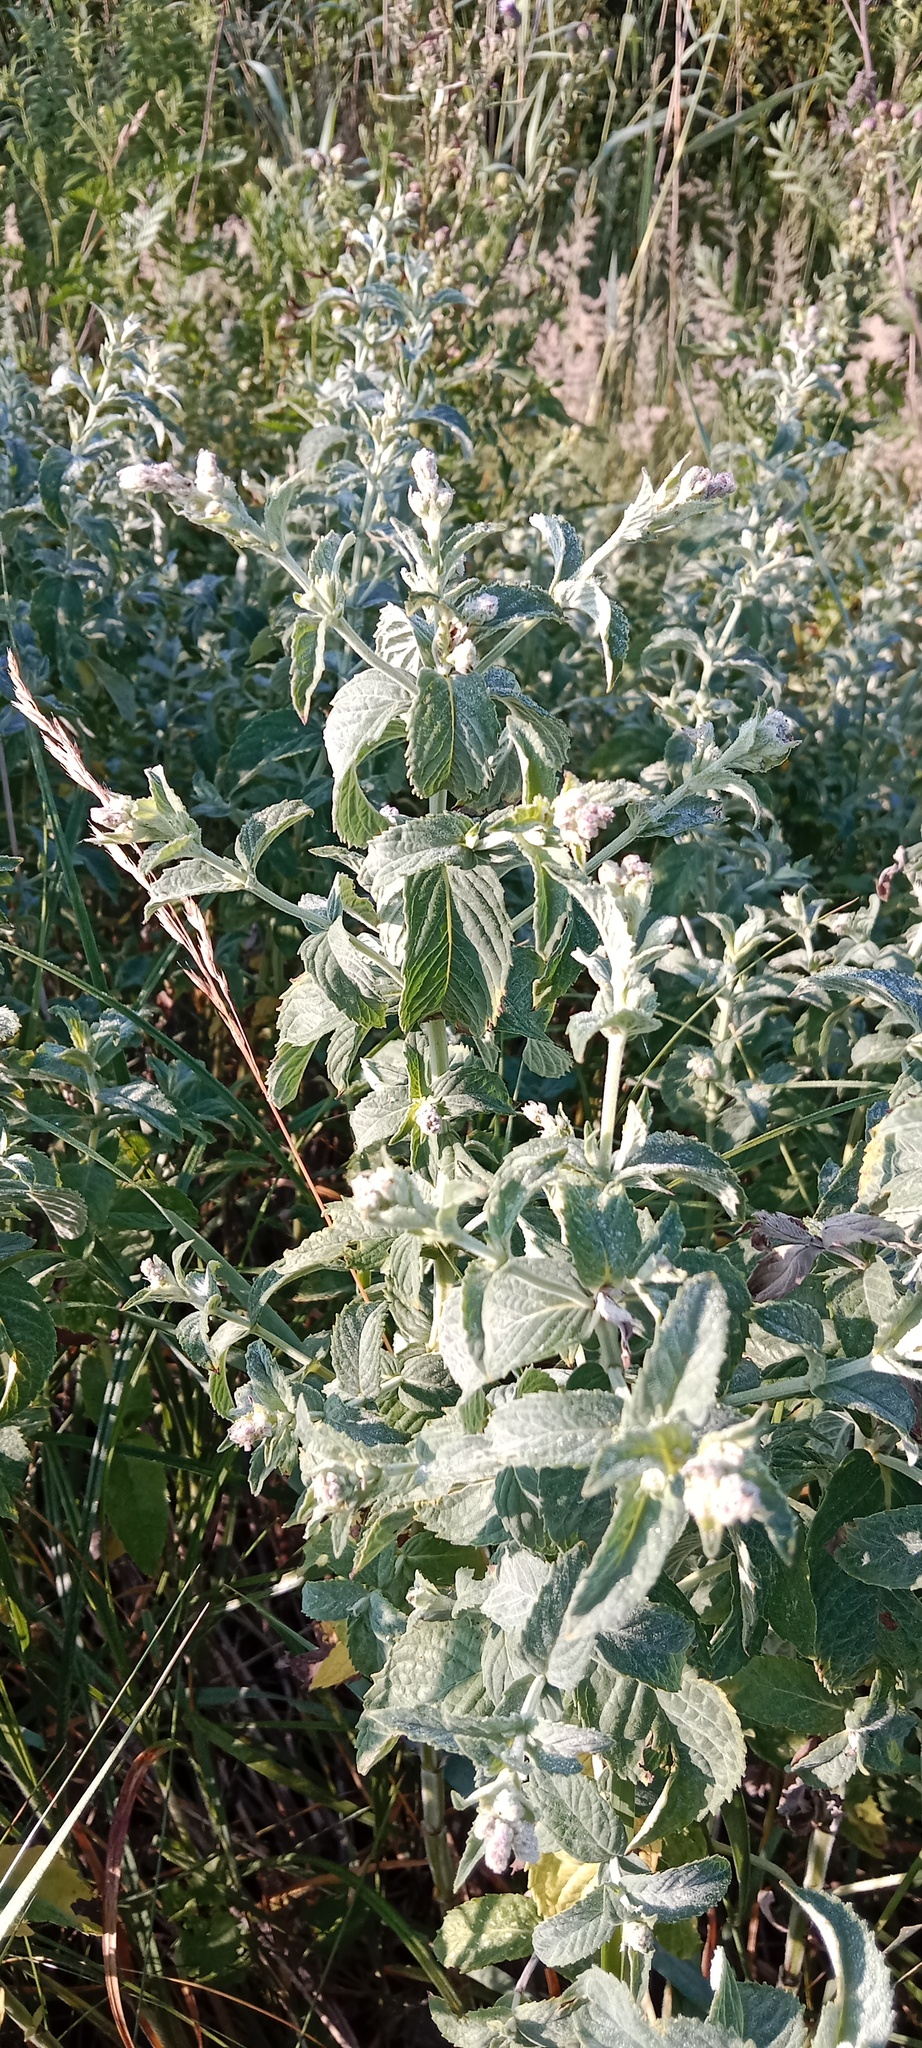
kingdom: Plantae
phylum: Tracheophyta
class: Magnoliopsida
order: Lamiales
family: Lamiaceae
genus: Mentha
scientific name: Mentha longifolia
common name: Horse mint
